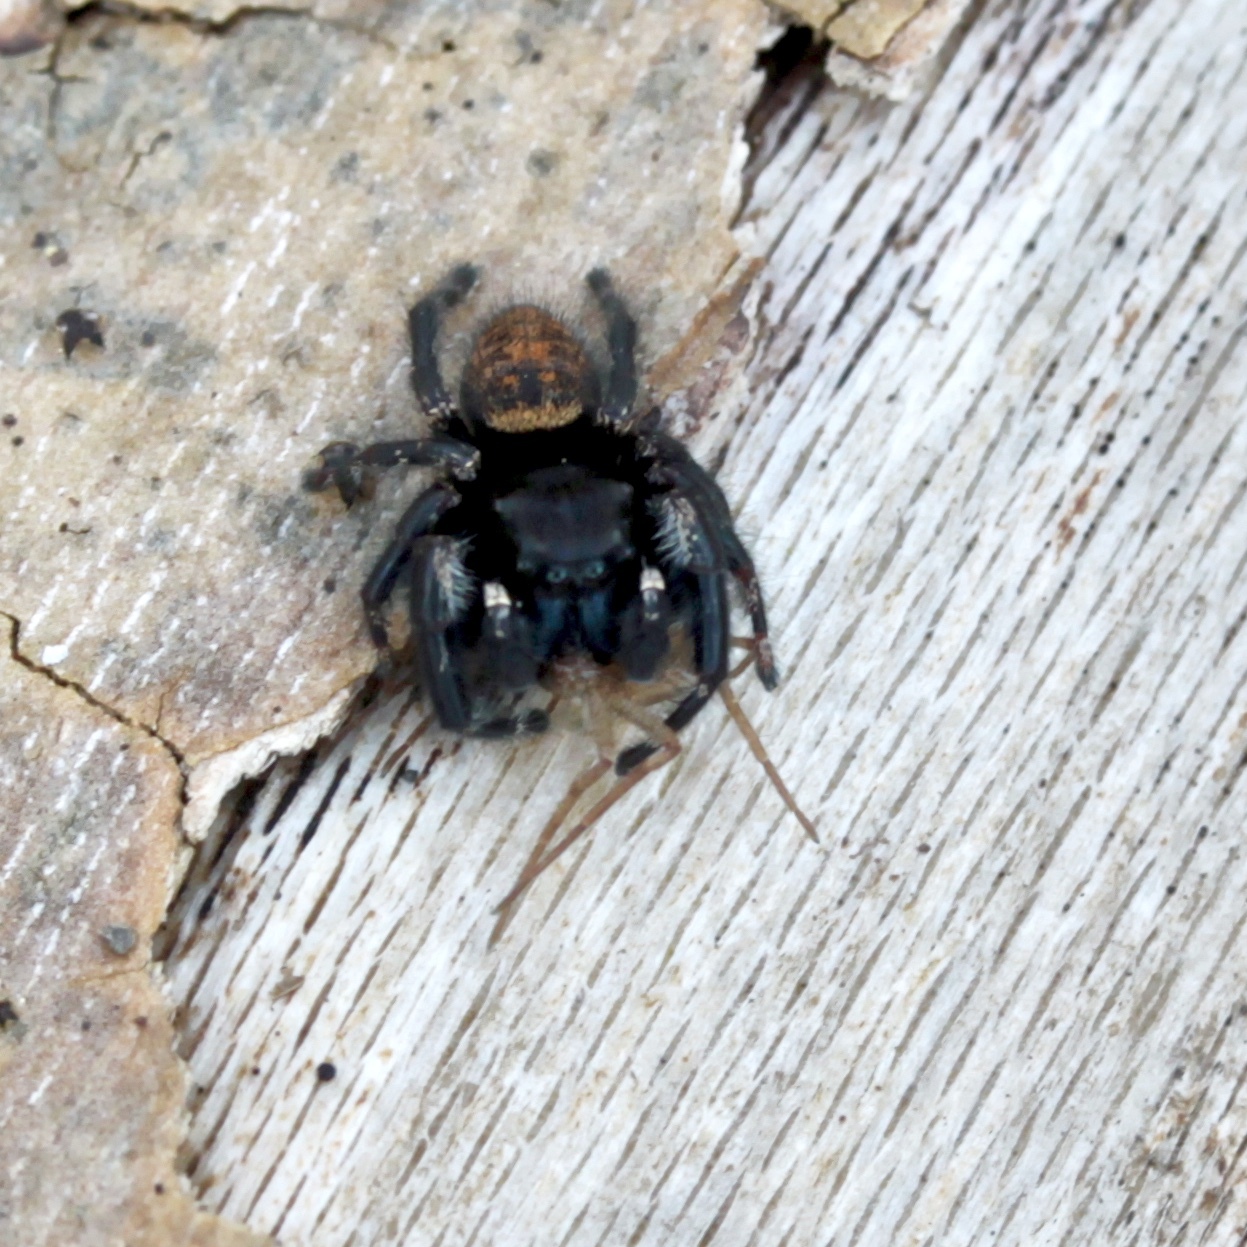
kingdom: Animalia
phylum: Arthropoda
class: Arachnida
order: Araneae
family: Salticidae
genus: Phidippus
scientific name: Phidippus princeps
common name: Grayish jumping spider
